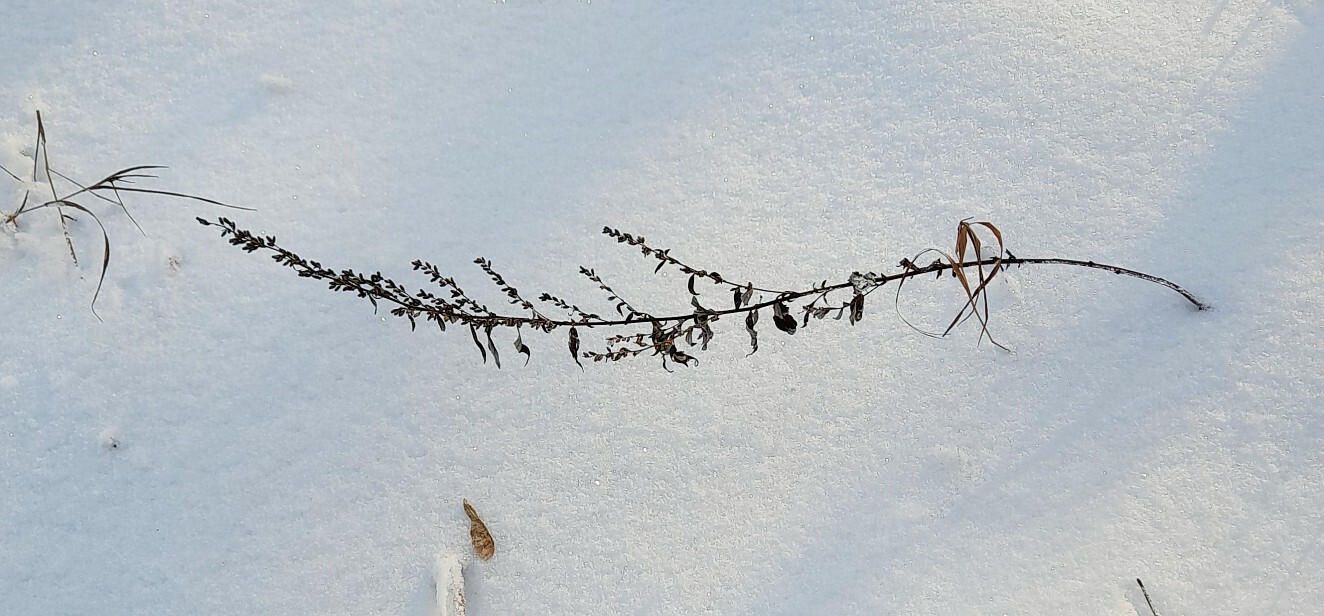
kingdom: Plantae
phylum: Tracheophyta
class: Magnoliopsida
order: Asterales
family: Asteraceae
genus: Artemisia
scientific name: Artemisia vulgaris
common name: Mugwort
